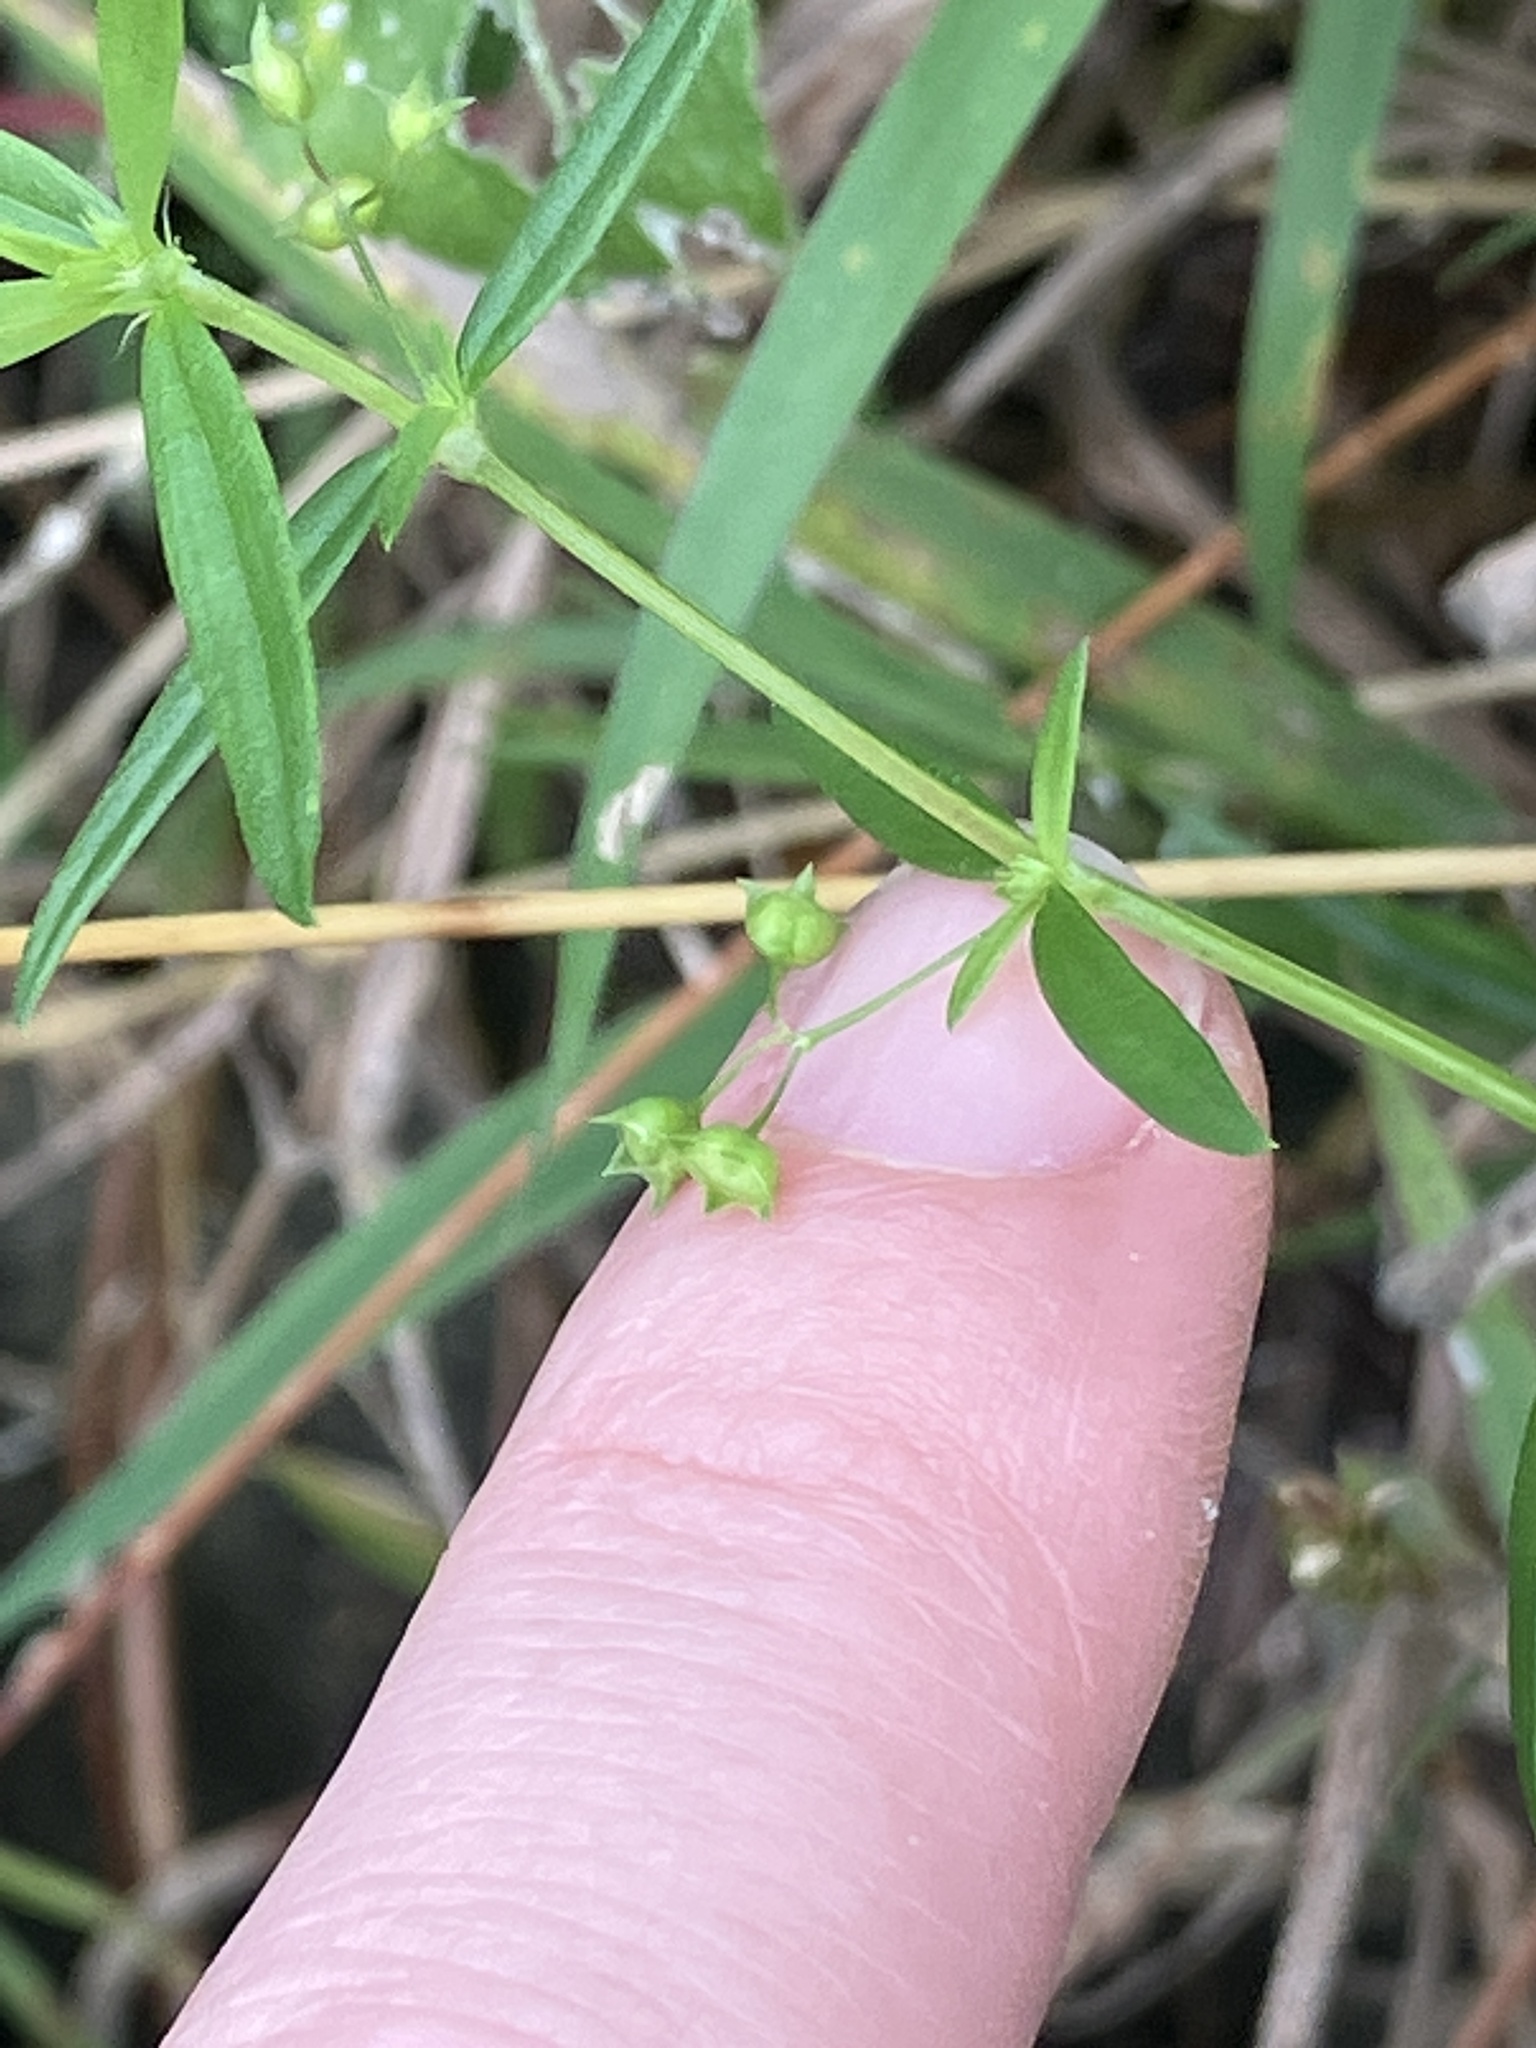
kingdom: Plantae
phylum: Tracheophyta
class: Magnoliopsida
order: Gentianales
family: Rubiaceae
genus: Oldenlandia
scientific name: Oldenlandia corymbosa
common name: Flat-top mille graines
